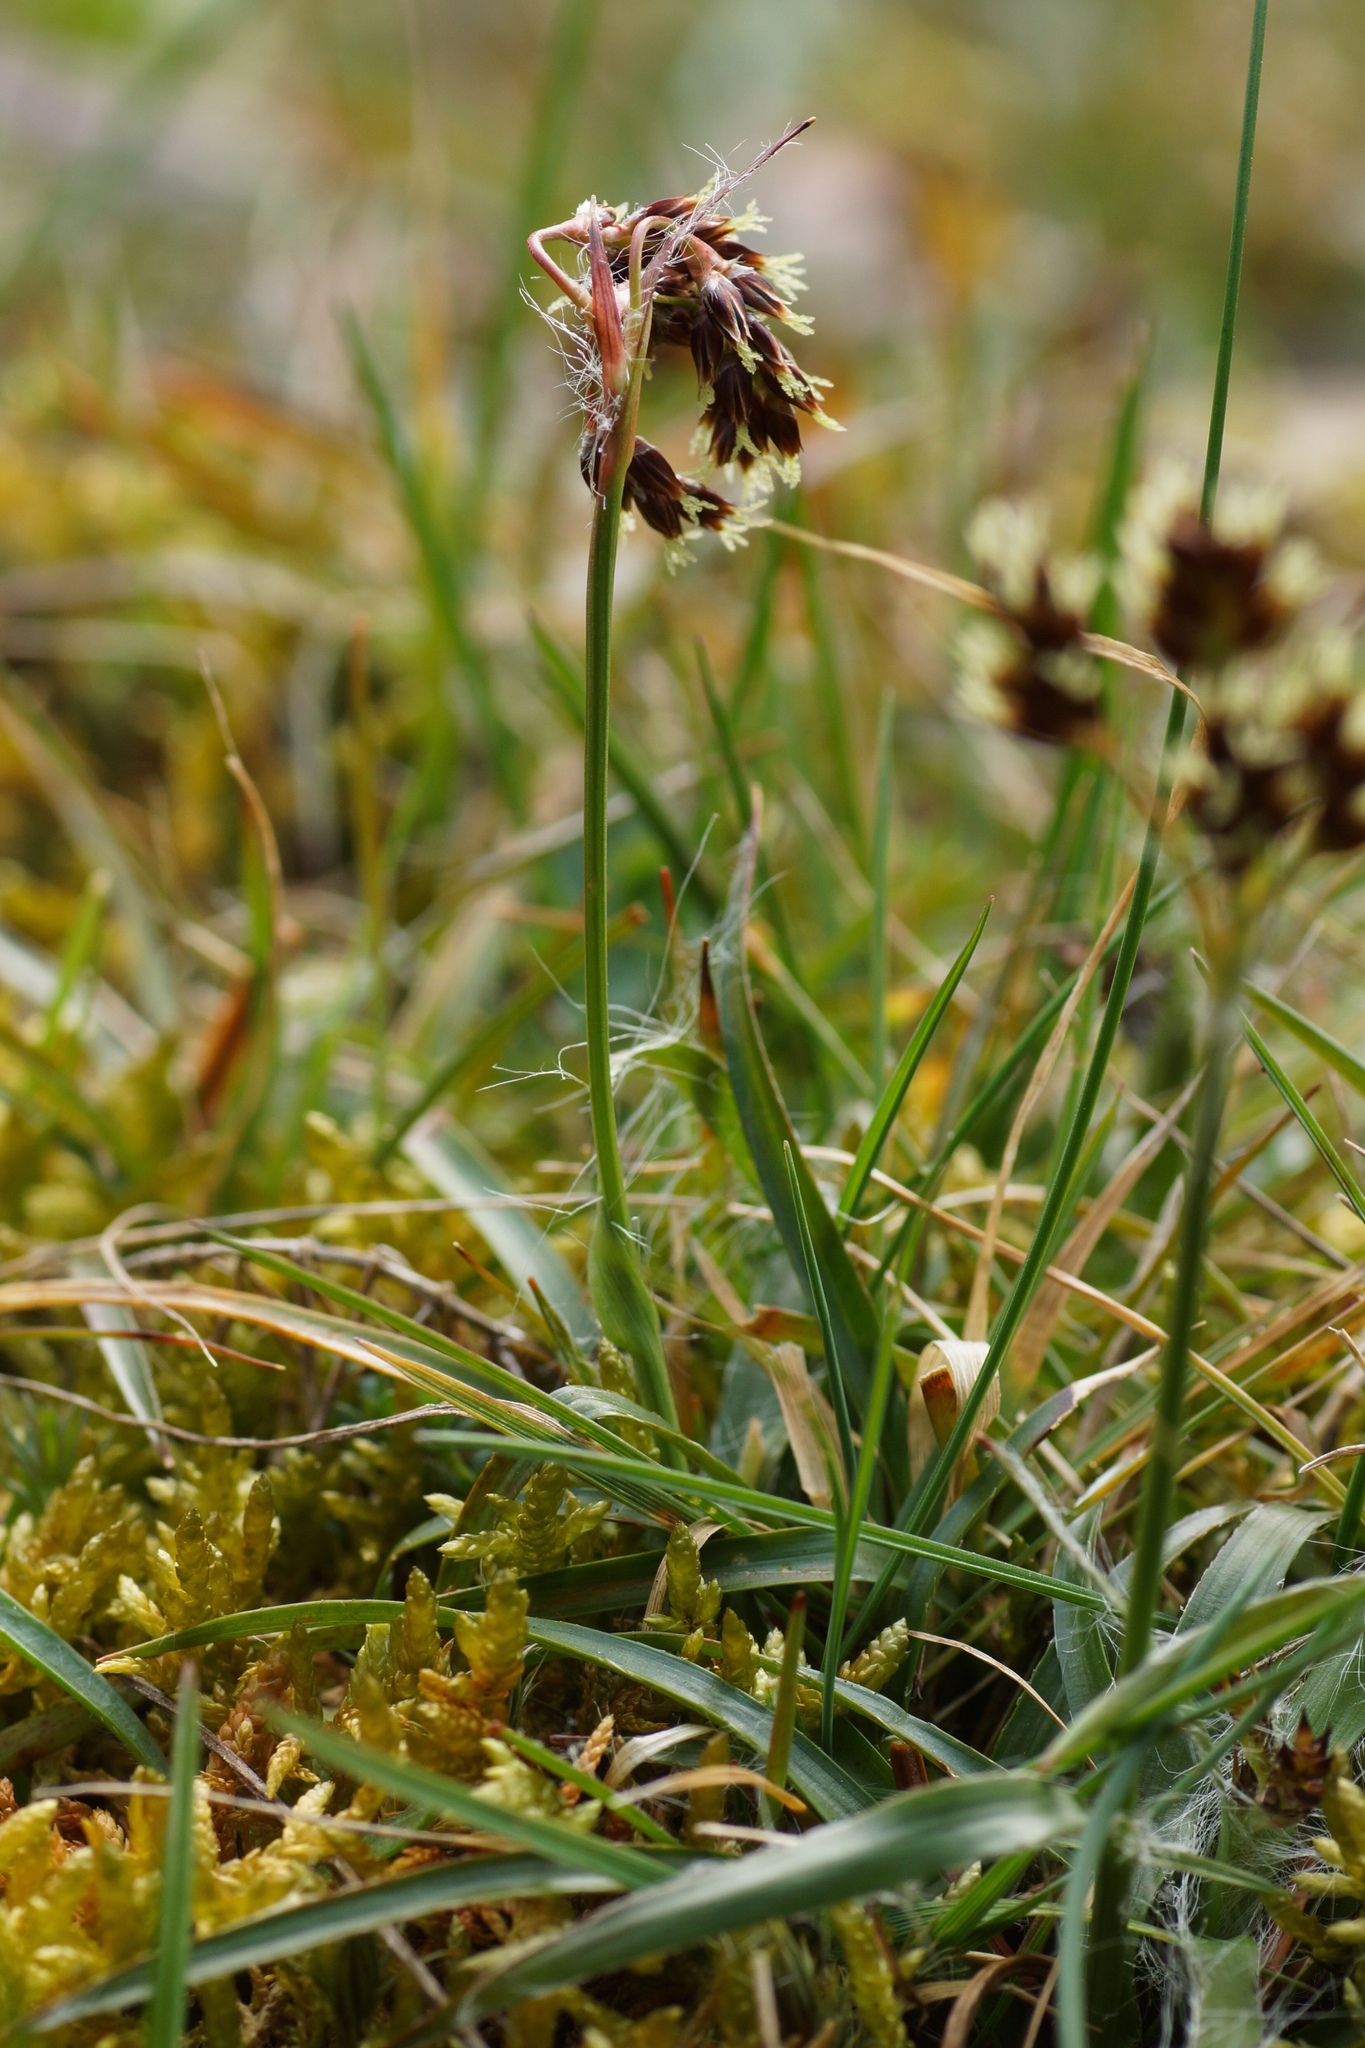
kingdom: Plantae
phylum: Tracheophyta
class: Liliopsida
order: Poales
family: Juncaceae
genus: Luzula
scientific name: Luzula campestris
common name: Field wood-rush
